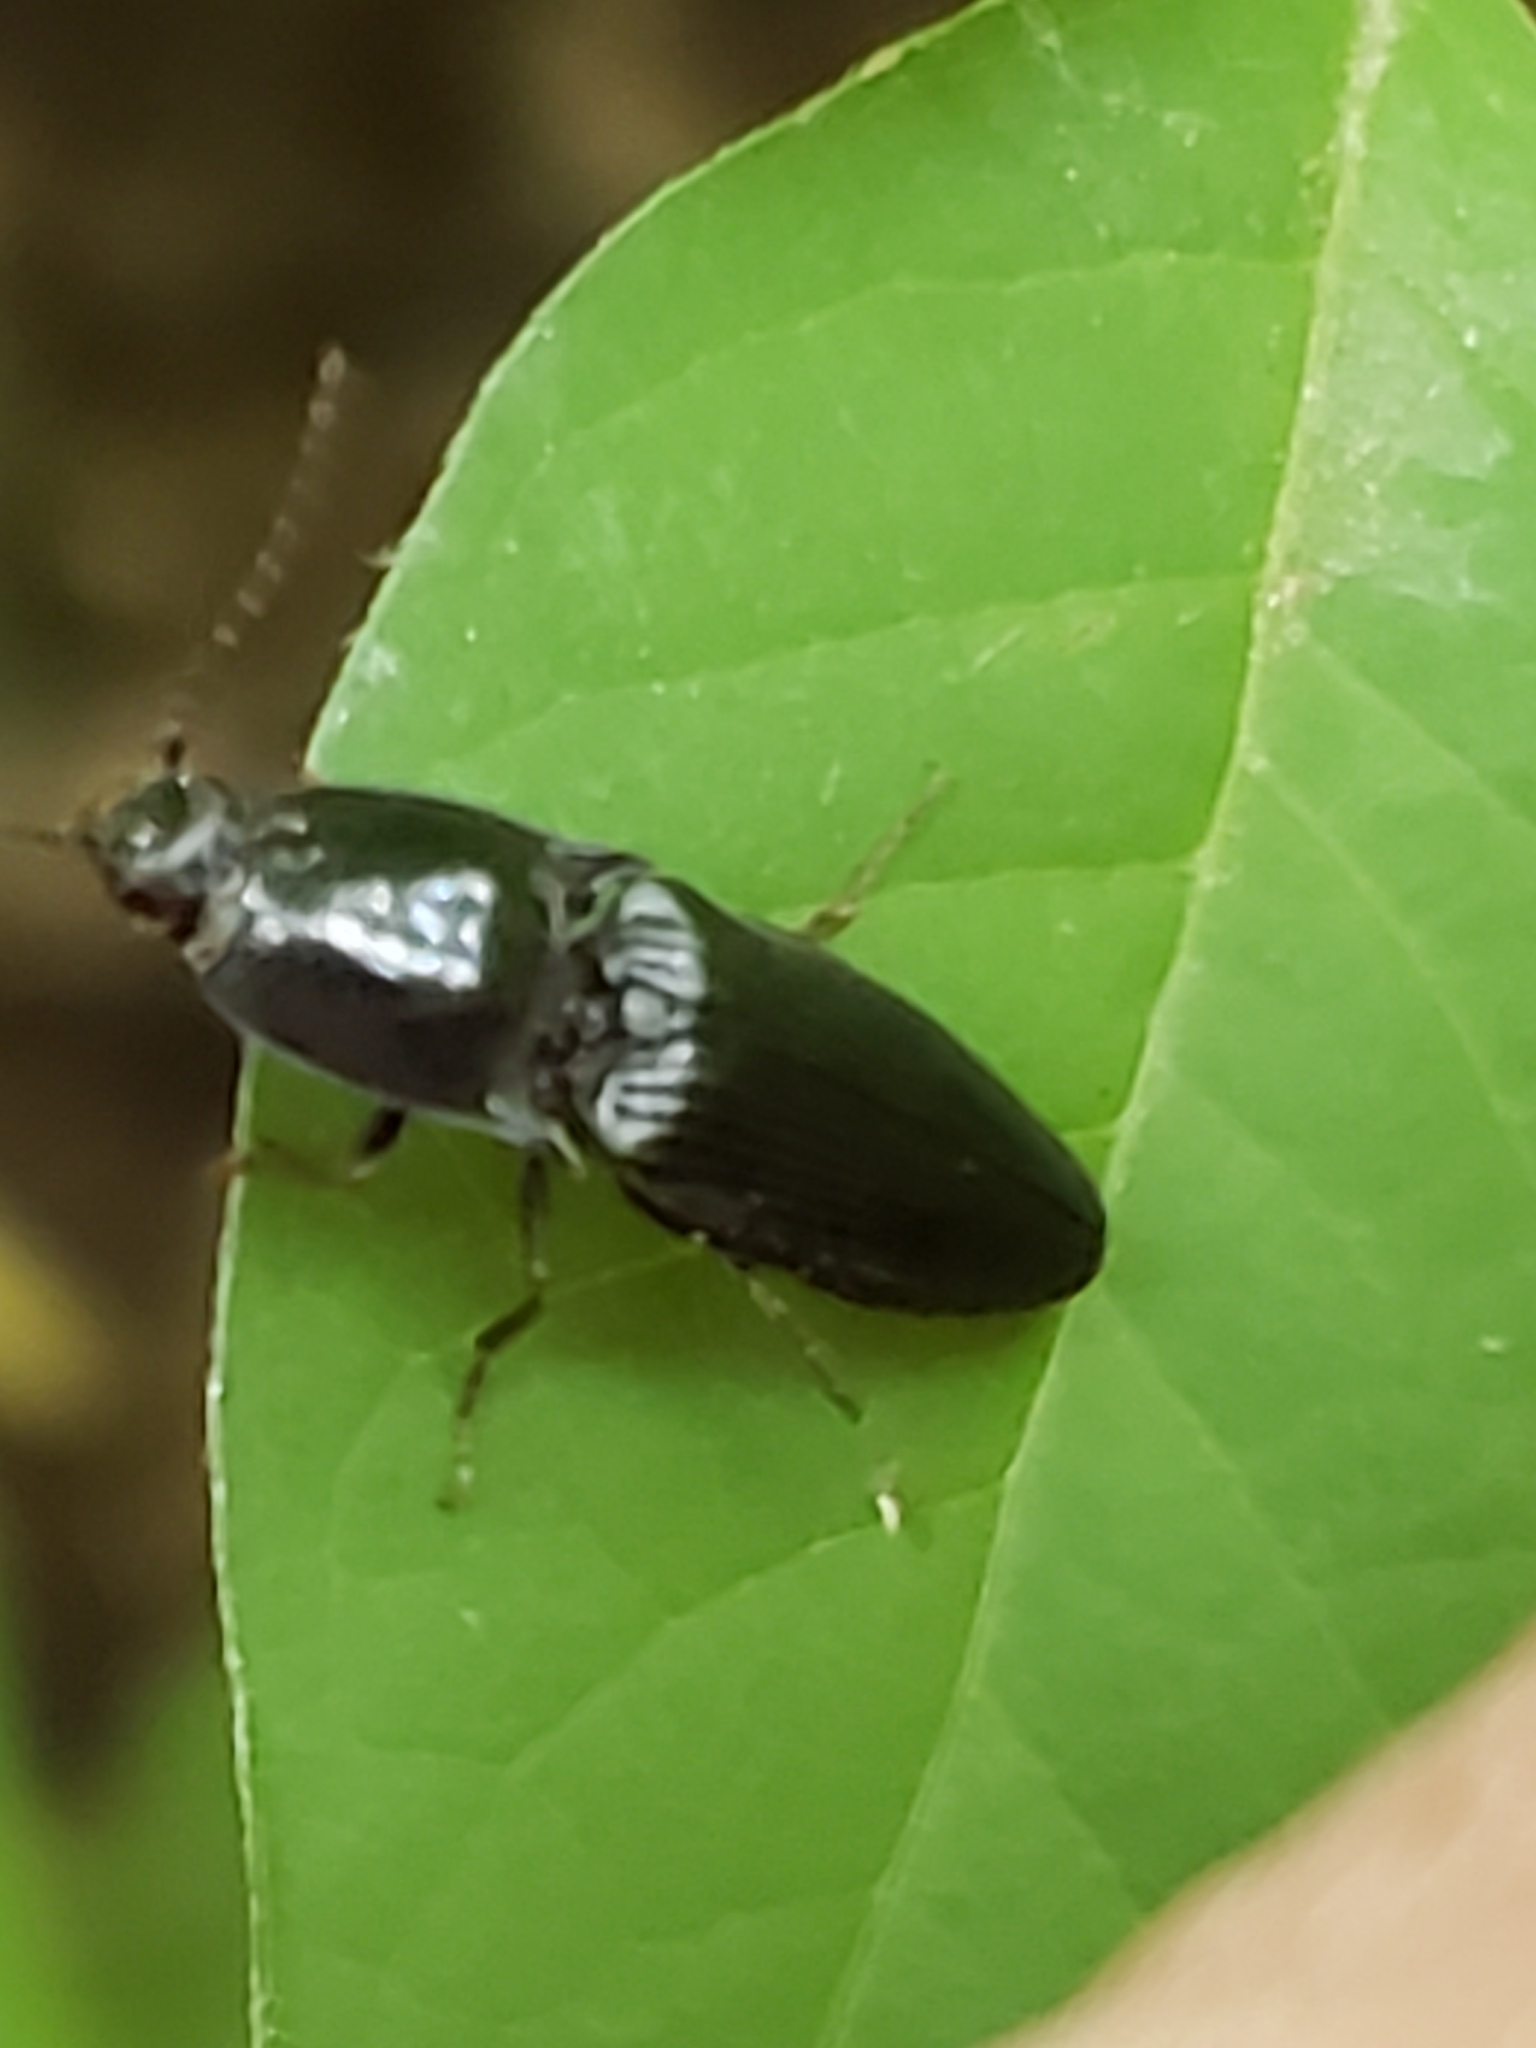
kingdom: Animalia
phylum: Arthropoda
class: Insecta
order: Coleoptera
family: Elateridae
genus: Neopristilophus
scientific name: Neopristilophus
